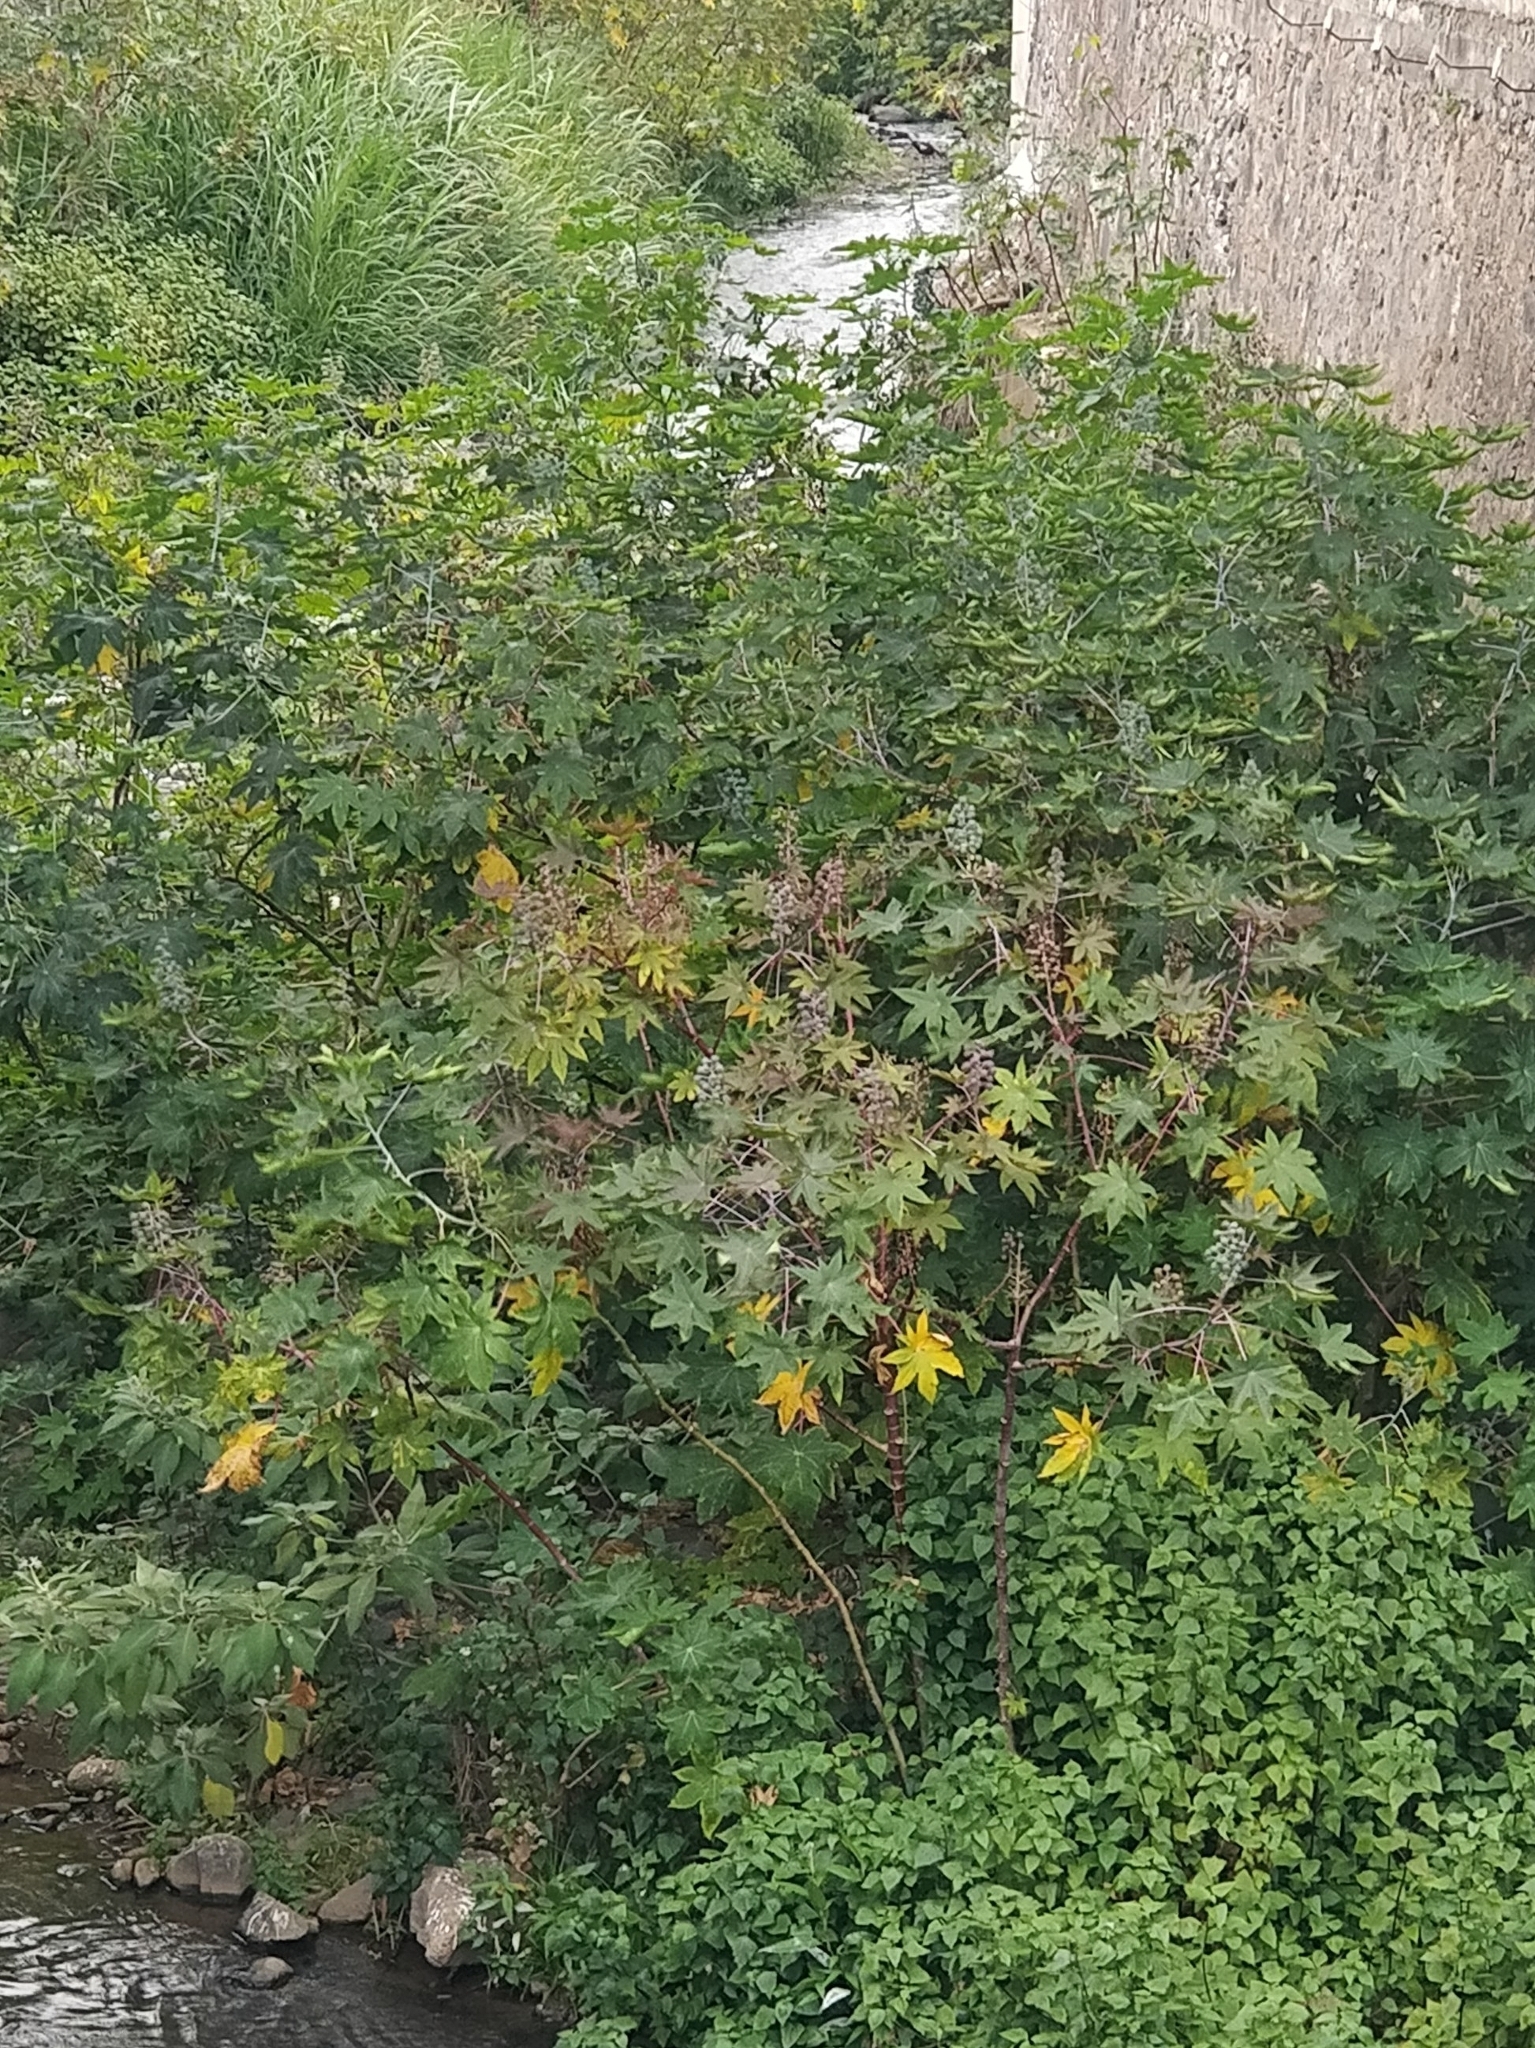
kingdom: Plantae
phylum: Tracheophyta
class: Magnoliopsida
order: Malpighiales
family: Euphorbiaceae
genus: Ricinus
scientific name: Ricinus communis
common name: Castor-oil-plant
